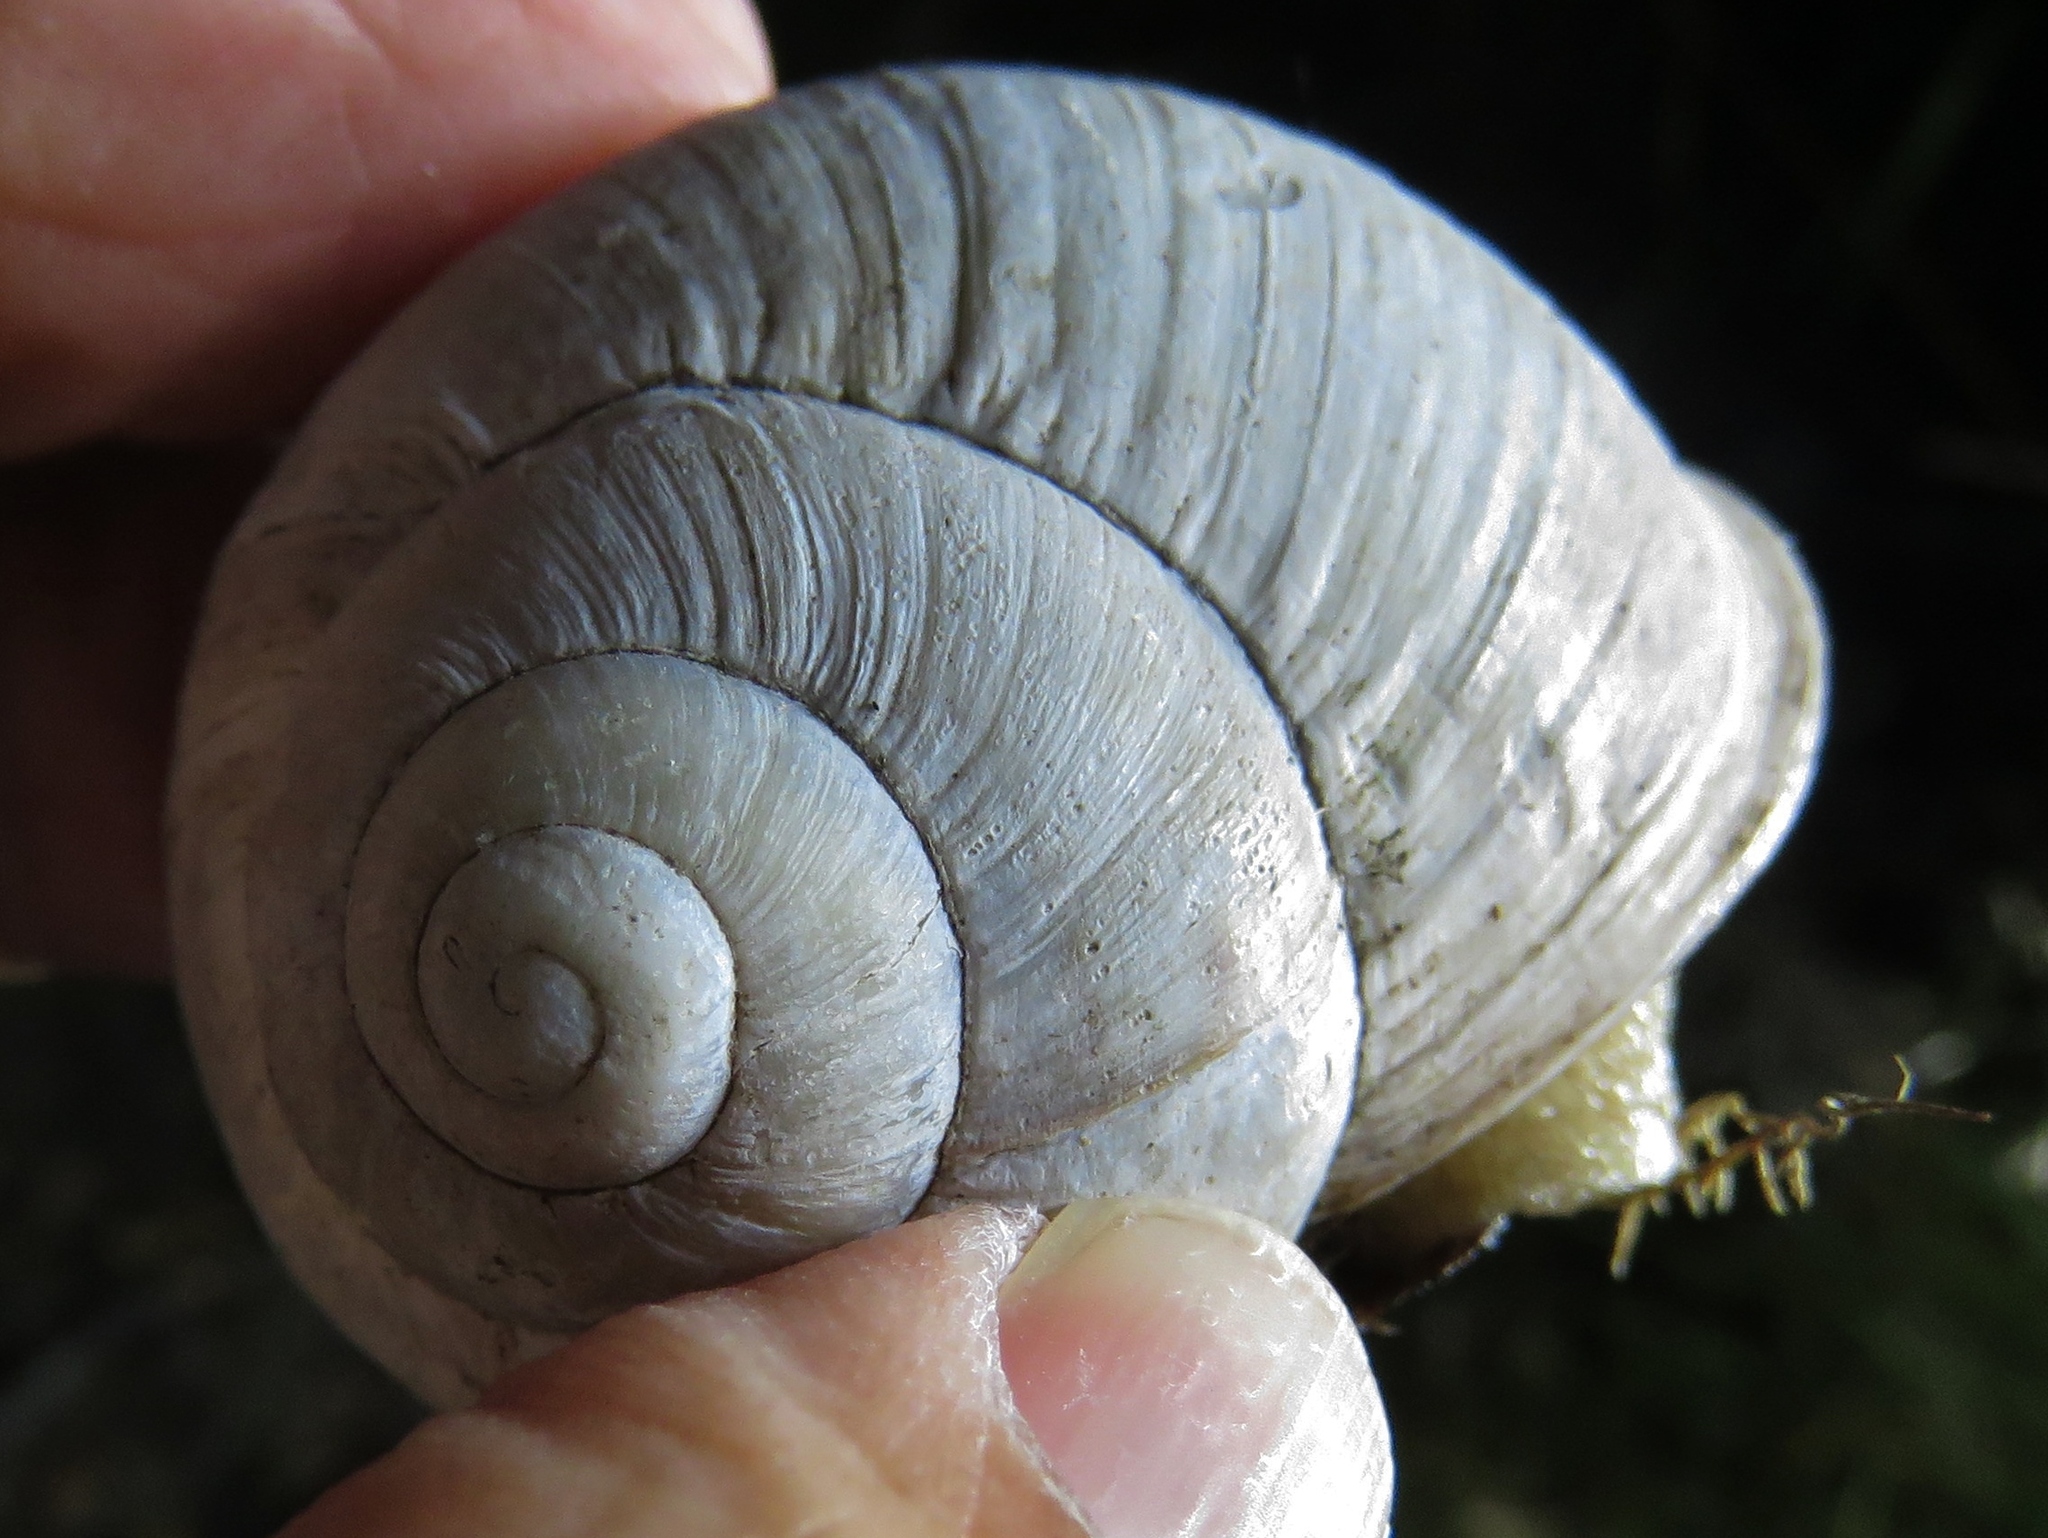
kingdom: Animalia
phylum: Mollusca
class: Gastropoda
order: Stylommatophora
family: Helicidae
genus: Helix
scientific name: Helix pomatia
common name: Roman snail
